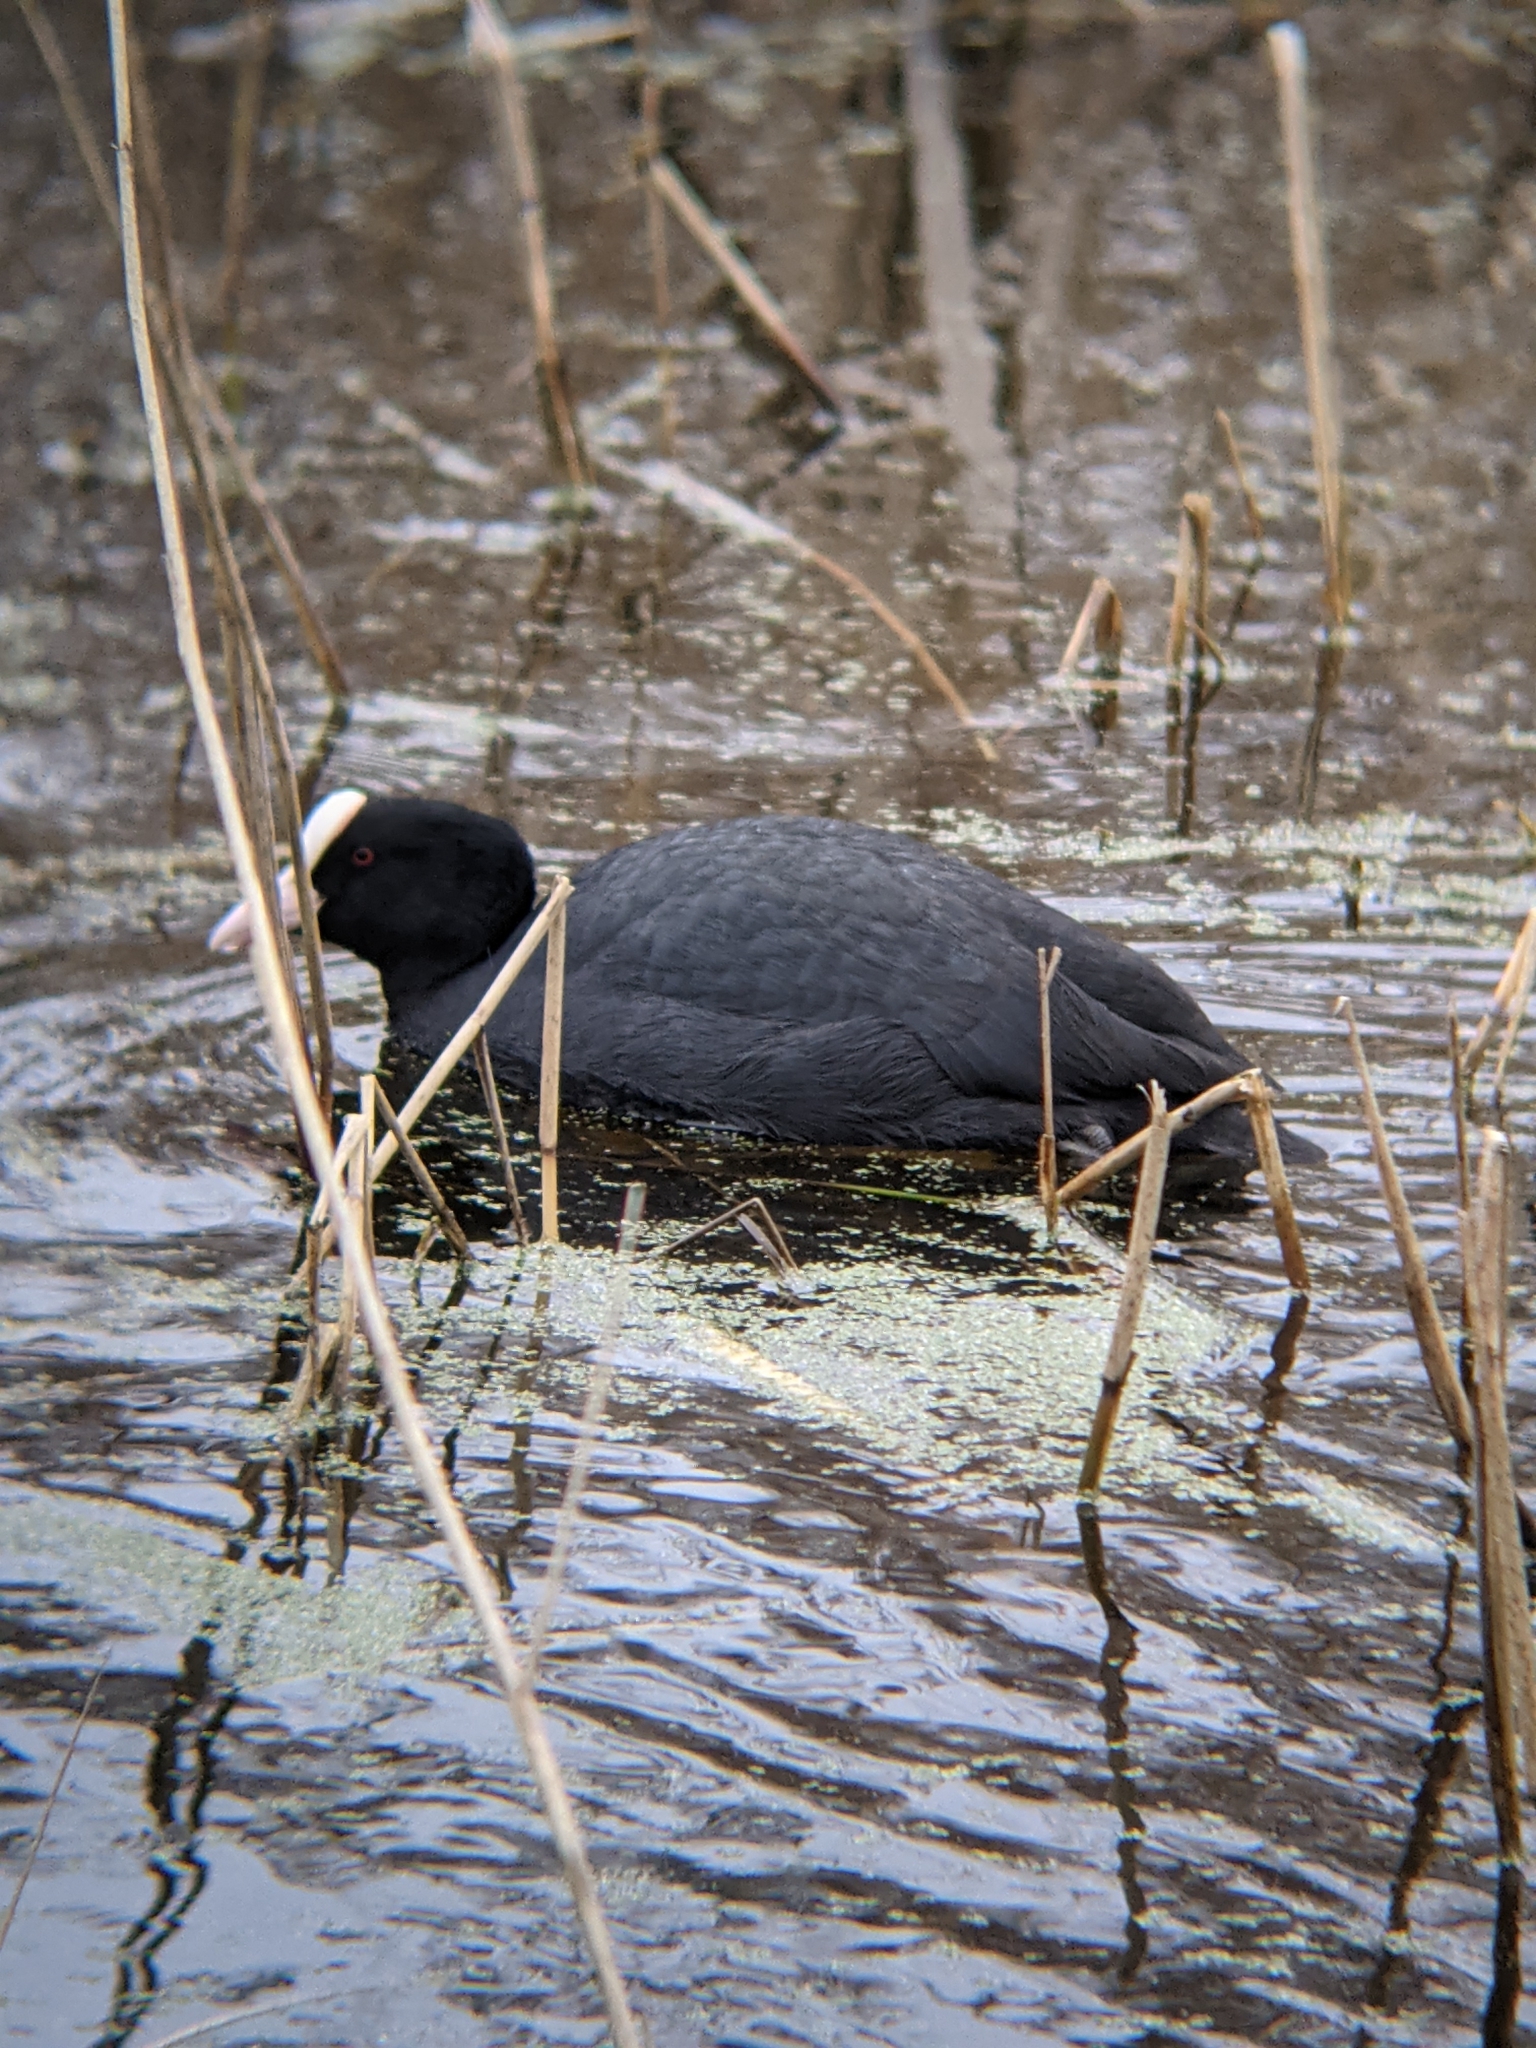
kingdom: Animalia
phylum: Chordata
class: Aves
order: Gruiformes
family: Rallidae
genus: Fulica
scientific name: Fulica atra
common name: Eurasian coot
